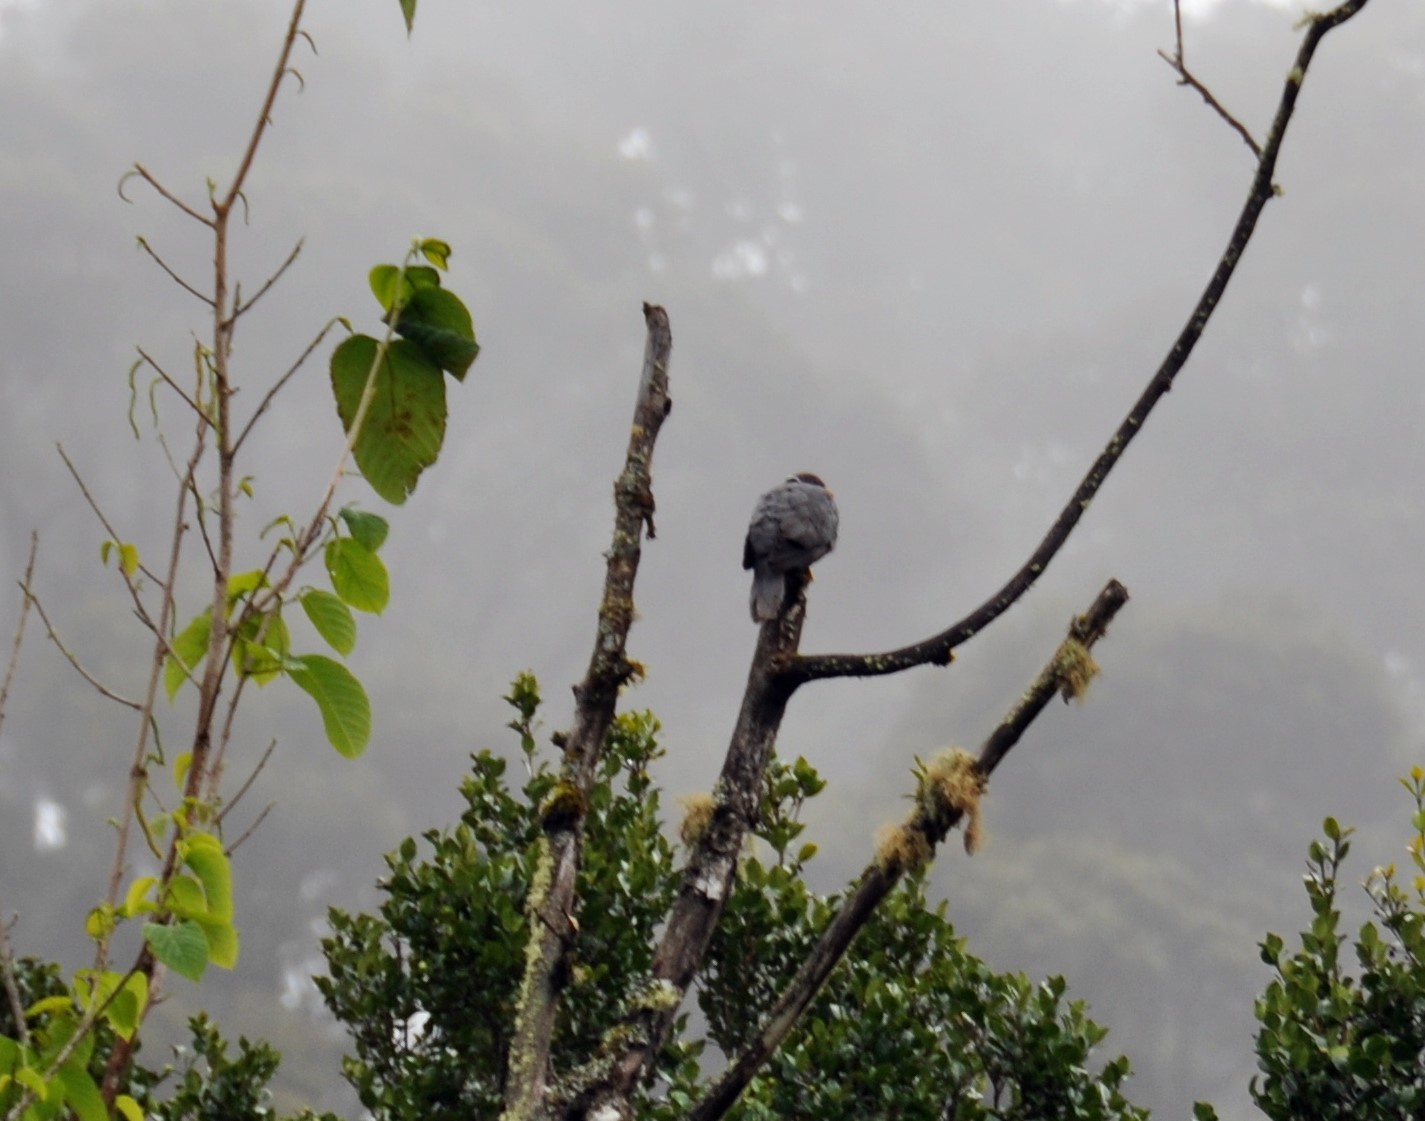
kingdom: Animalia
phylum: Chordata
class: Aves
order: Columbiformes
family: Columbidae
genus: Patagioenas
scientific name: Patagioenas fasciata
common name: Band-tailed pigeon
